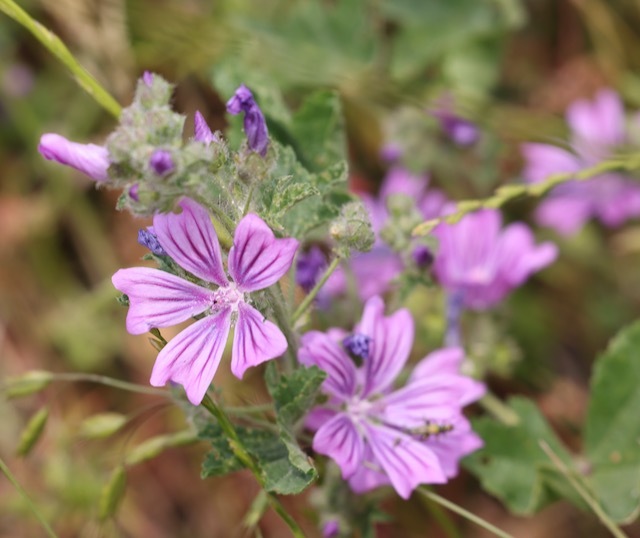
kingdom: Plantae
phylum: Tracheophyta
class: Magnoliopsida
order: Malvales
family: Malvaceae
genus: Malva
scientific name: Malva sylvestris
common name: Common mallow
